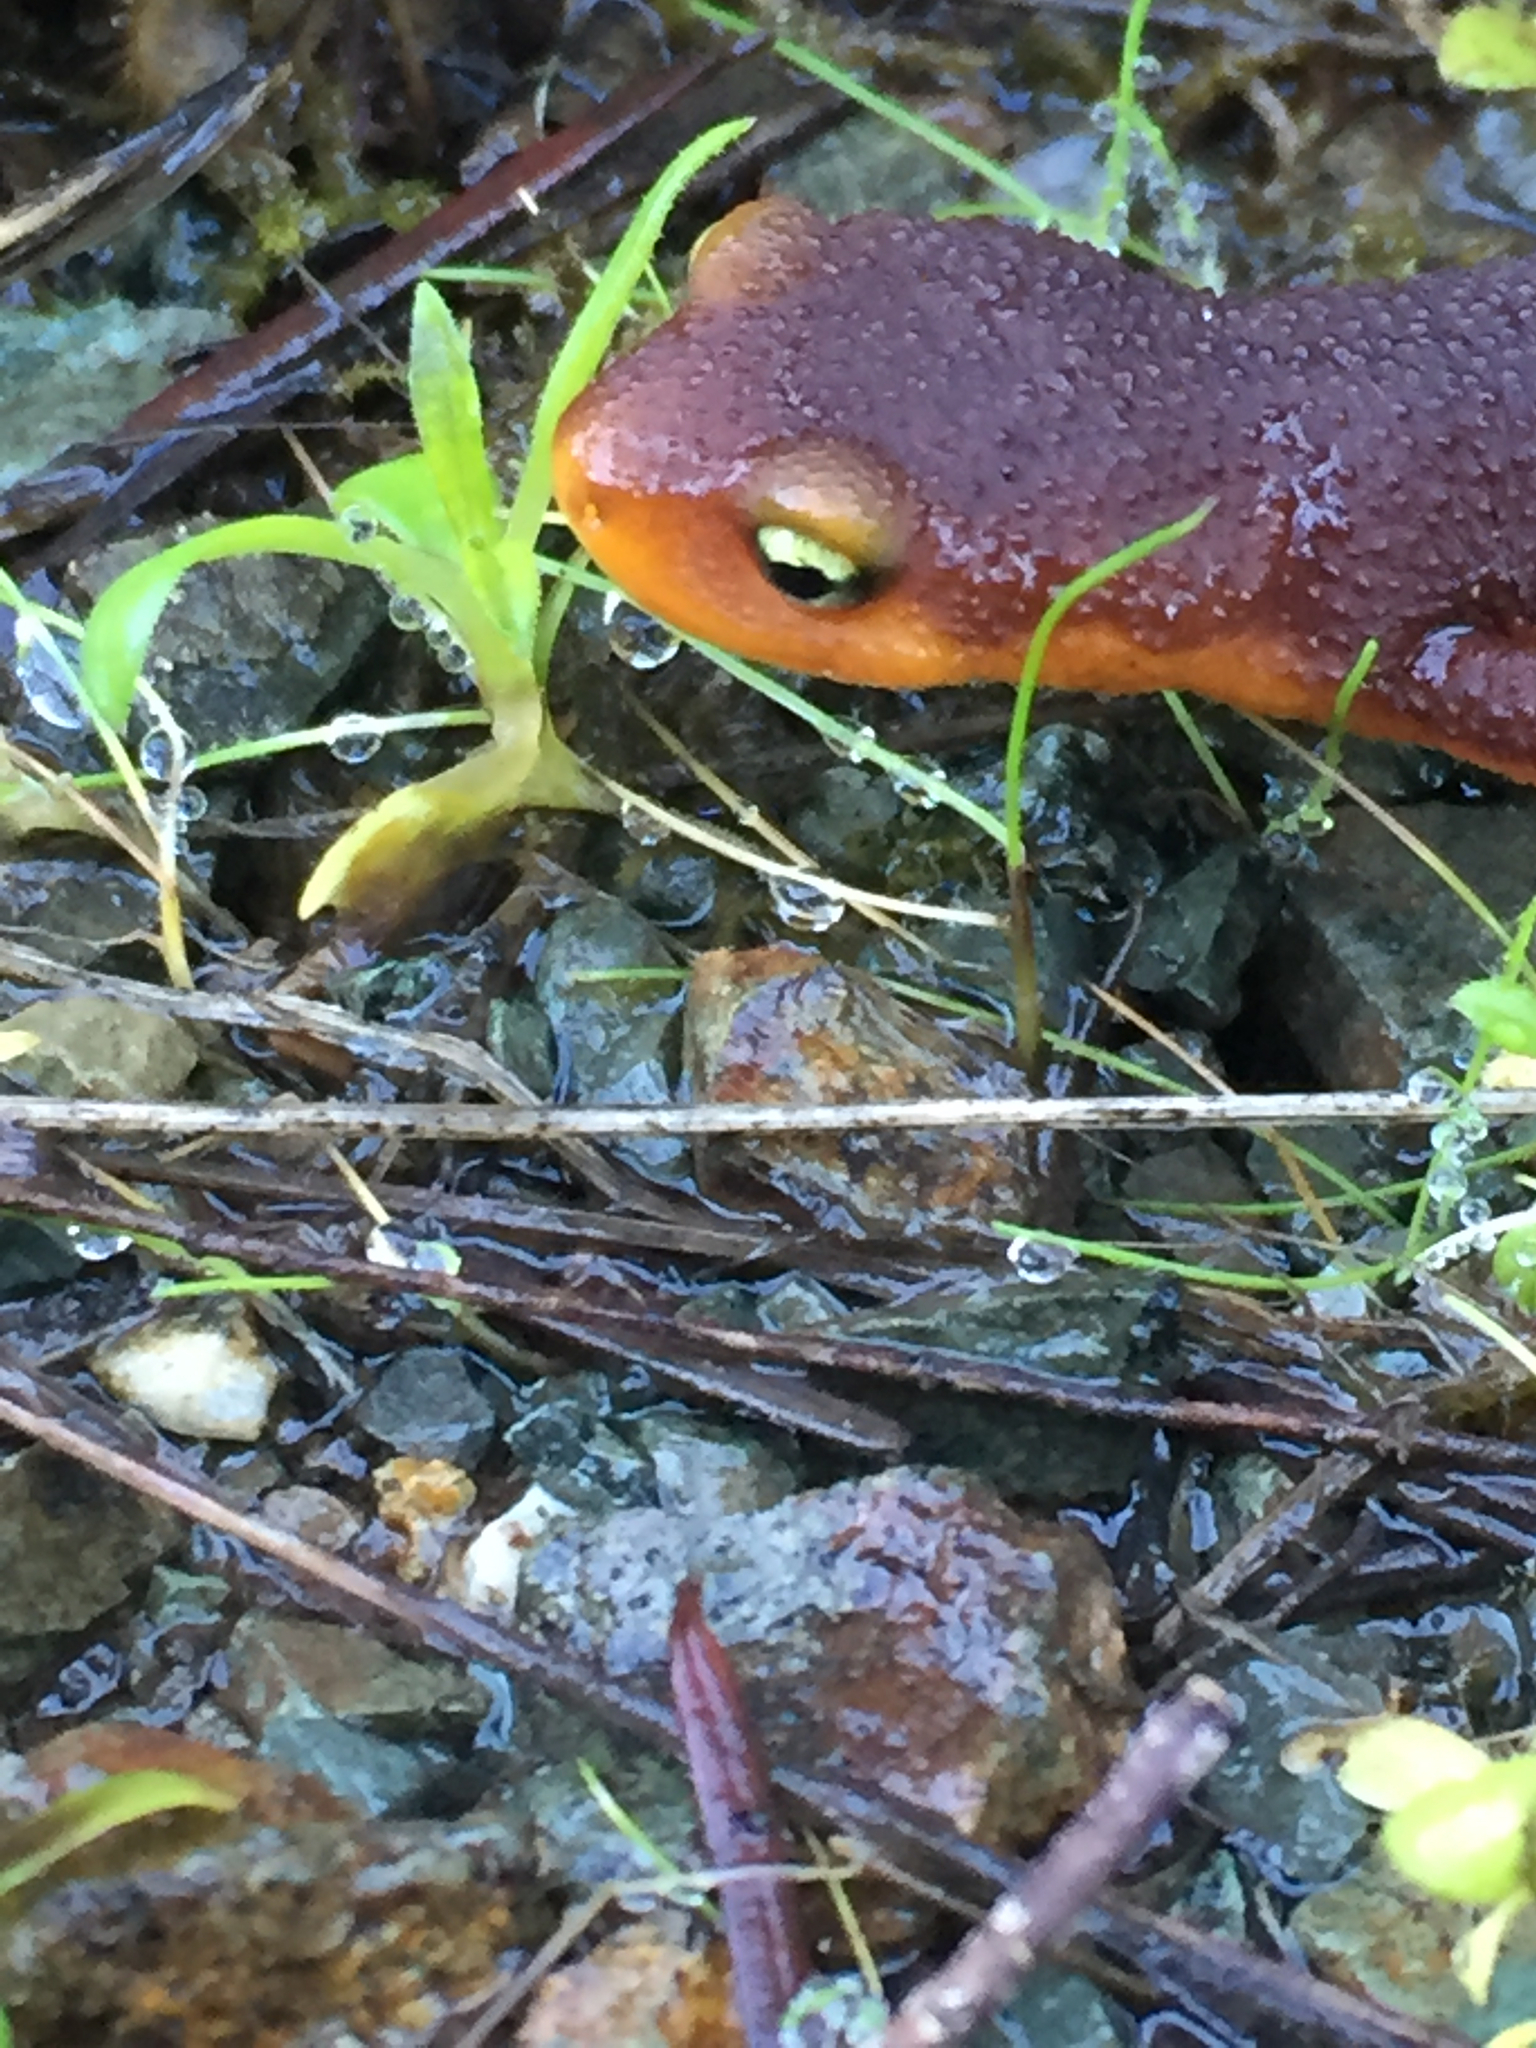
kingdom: Animalia
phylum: Chordata
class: Amphibia
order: Caudata
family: Salamandridae
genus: Taricha
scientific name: Taricha torosa
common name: California newt
